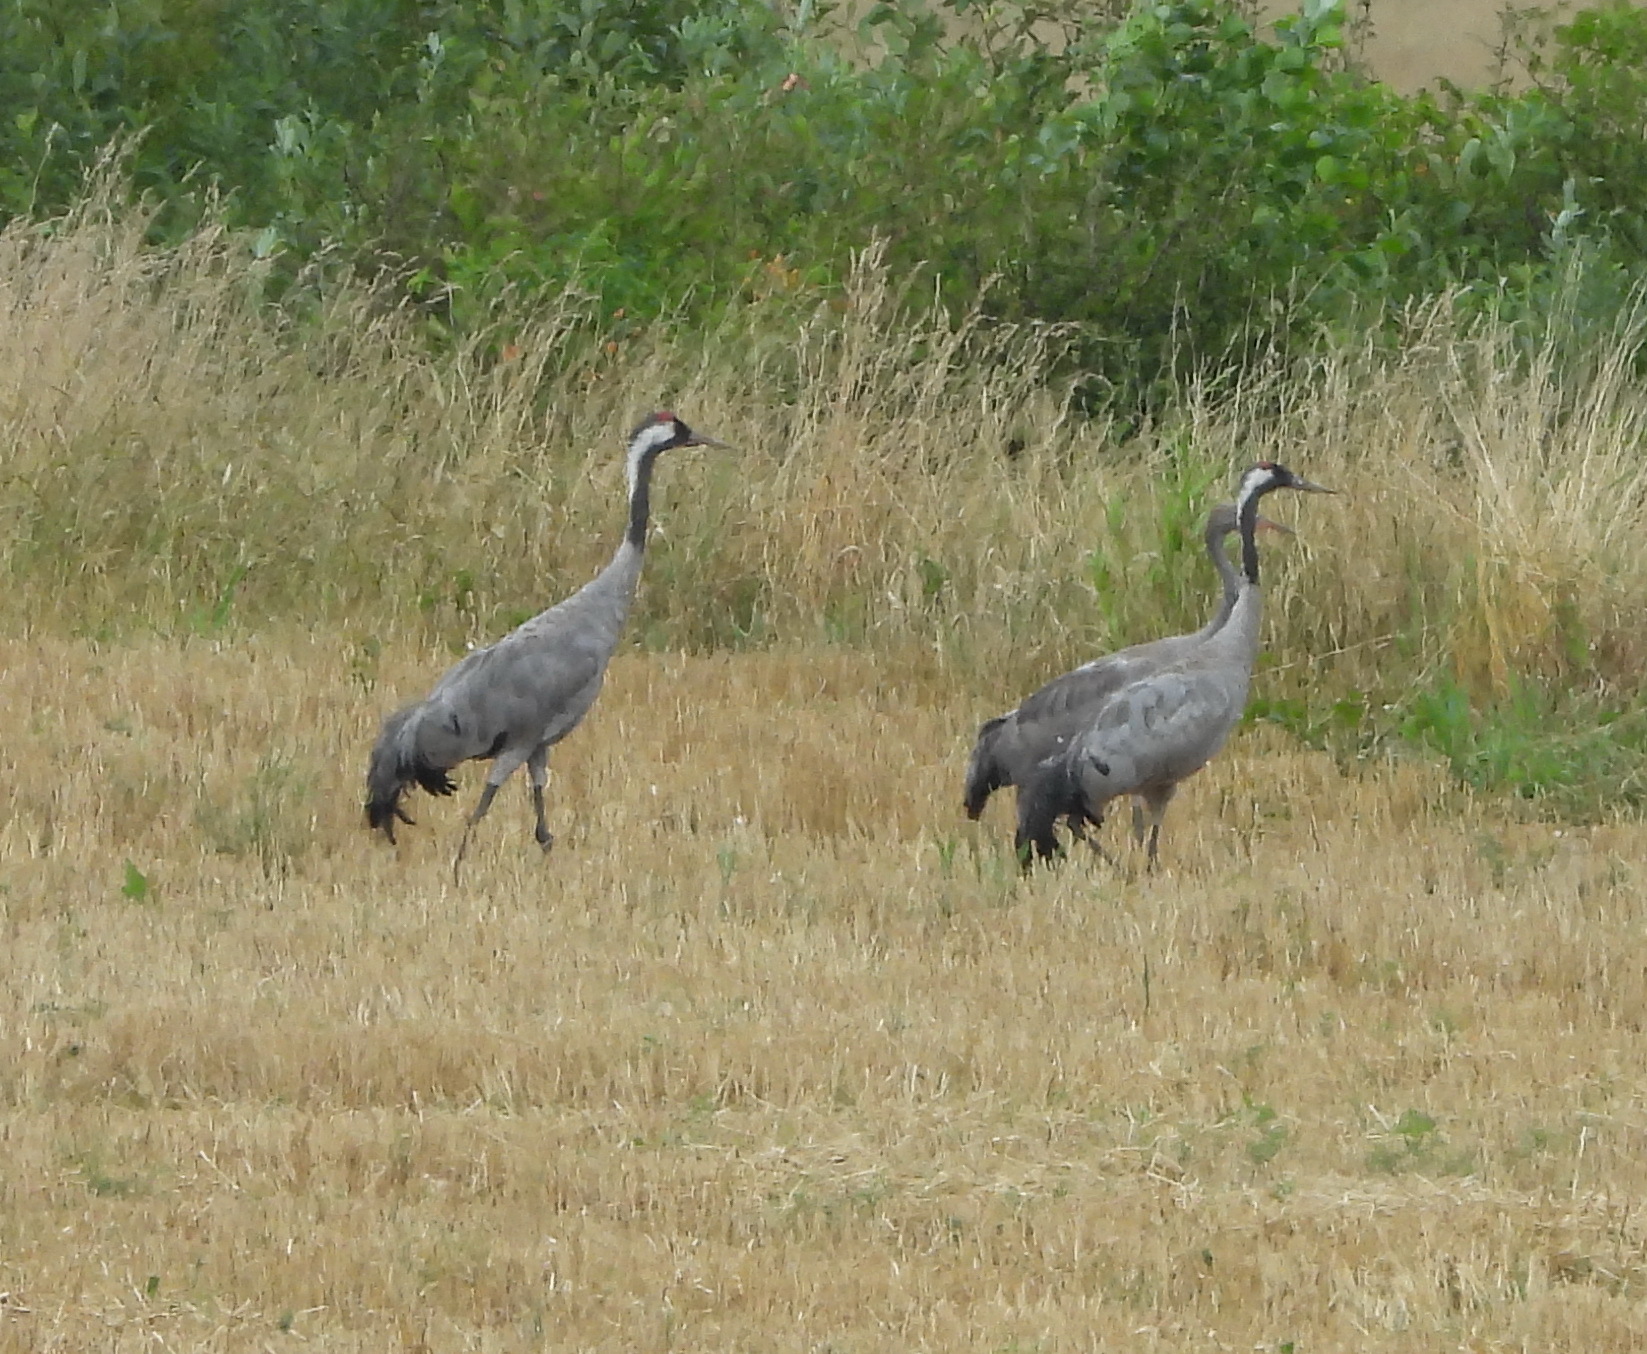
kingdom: Animalia
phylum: Chordata
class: Aves
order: Gruiformes
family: Gruidae
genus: Grus
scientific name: Grus grus
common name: Common crane
